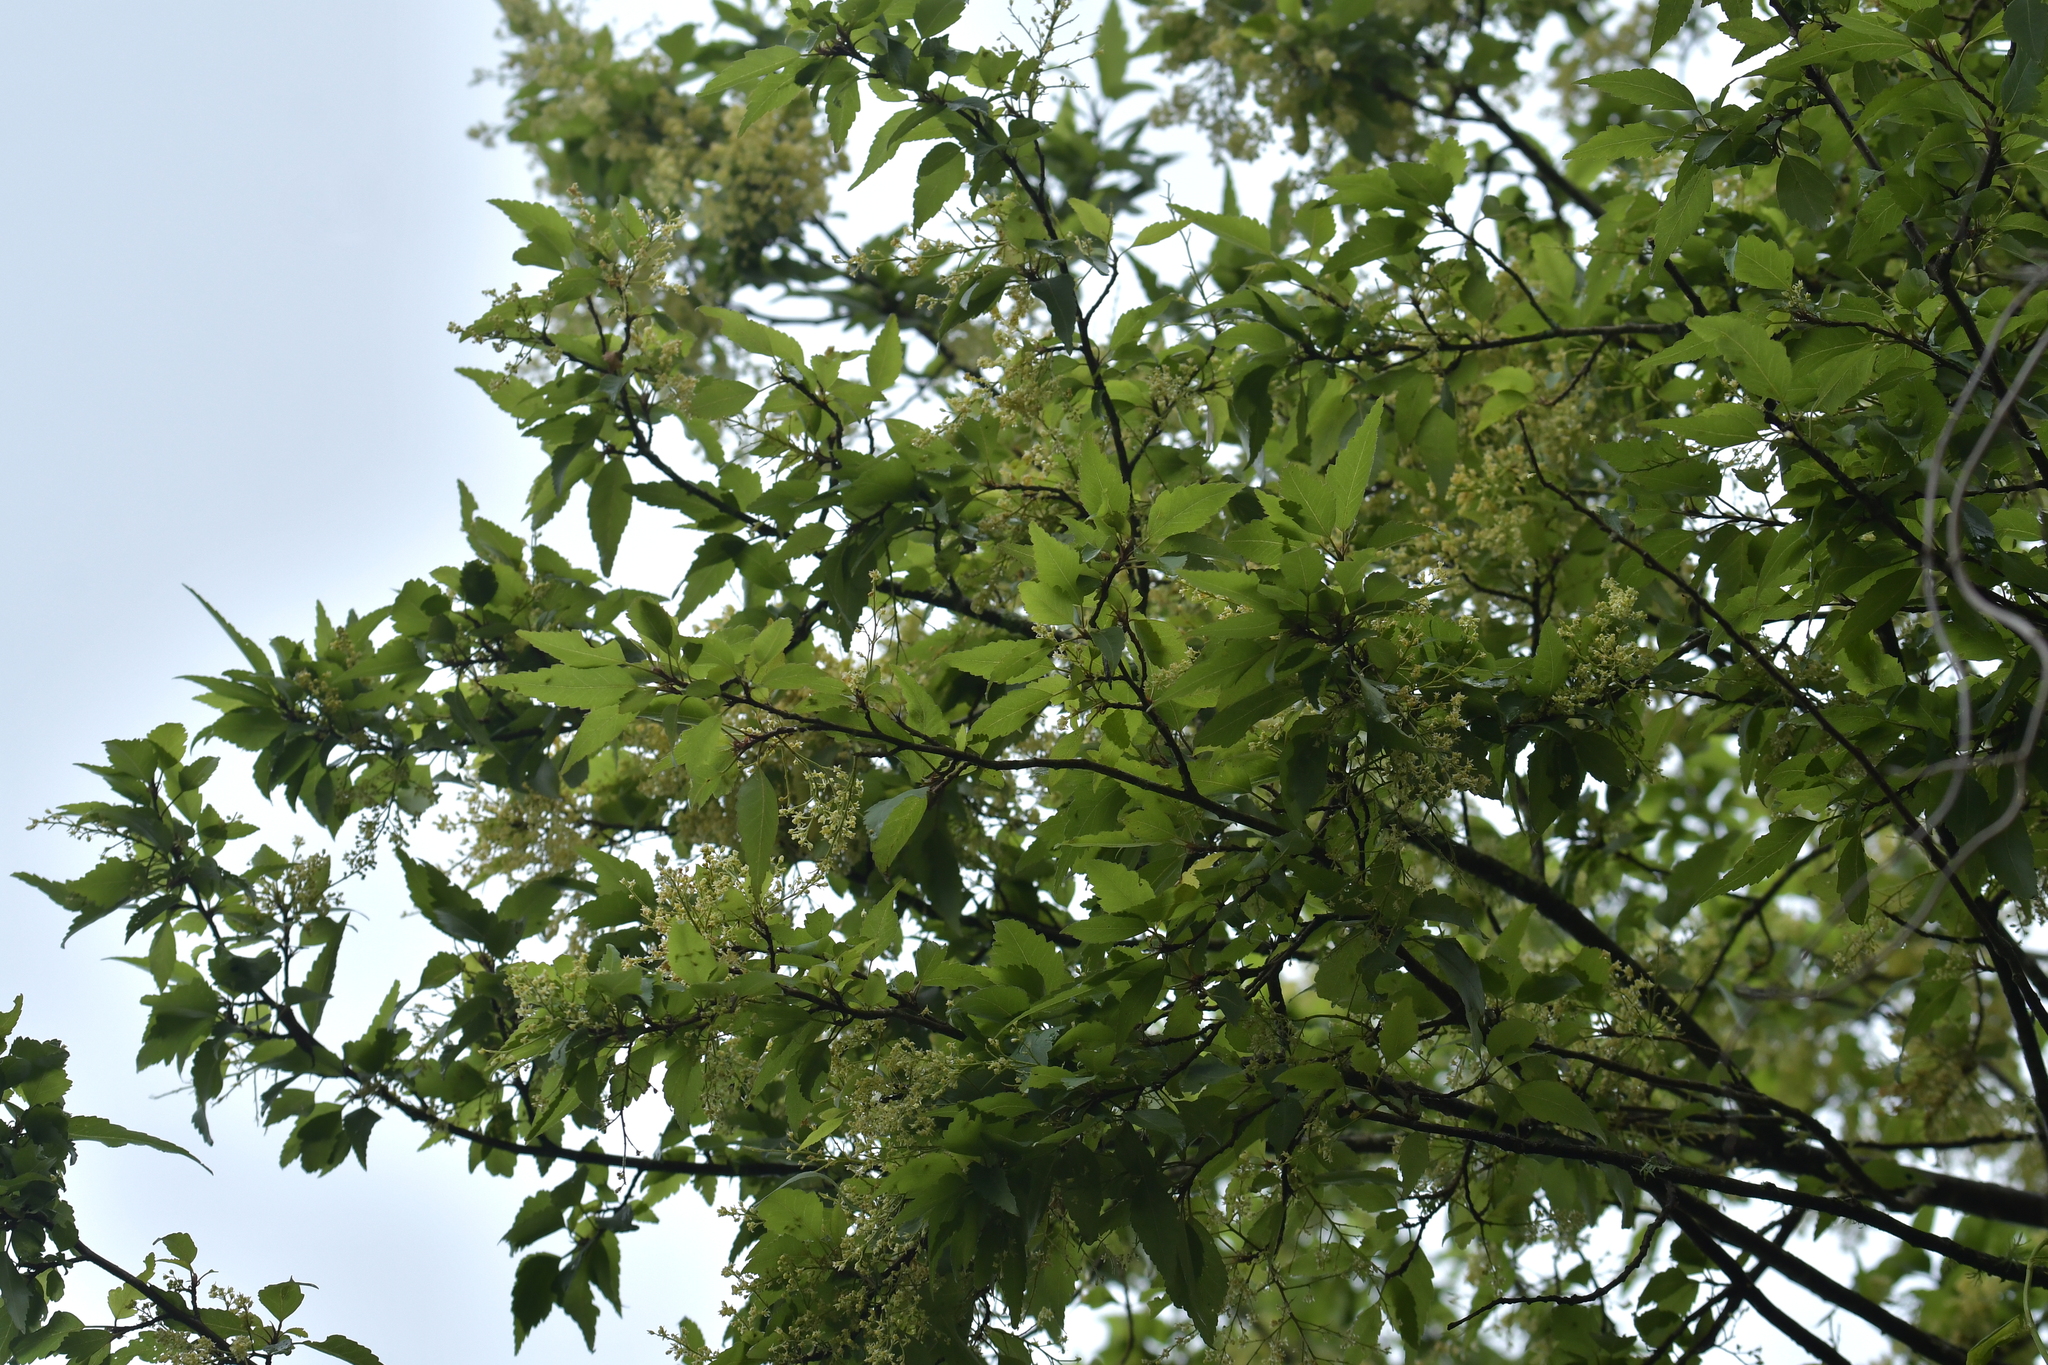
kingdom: Plantae
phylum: Tracheophyta
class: Magnoliopsida
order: Malvales
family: Malvaceae
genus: Plagianthus
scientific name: Plagianthus regius
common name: Manatu
